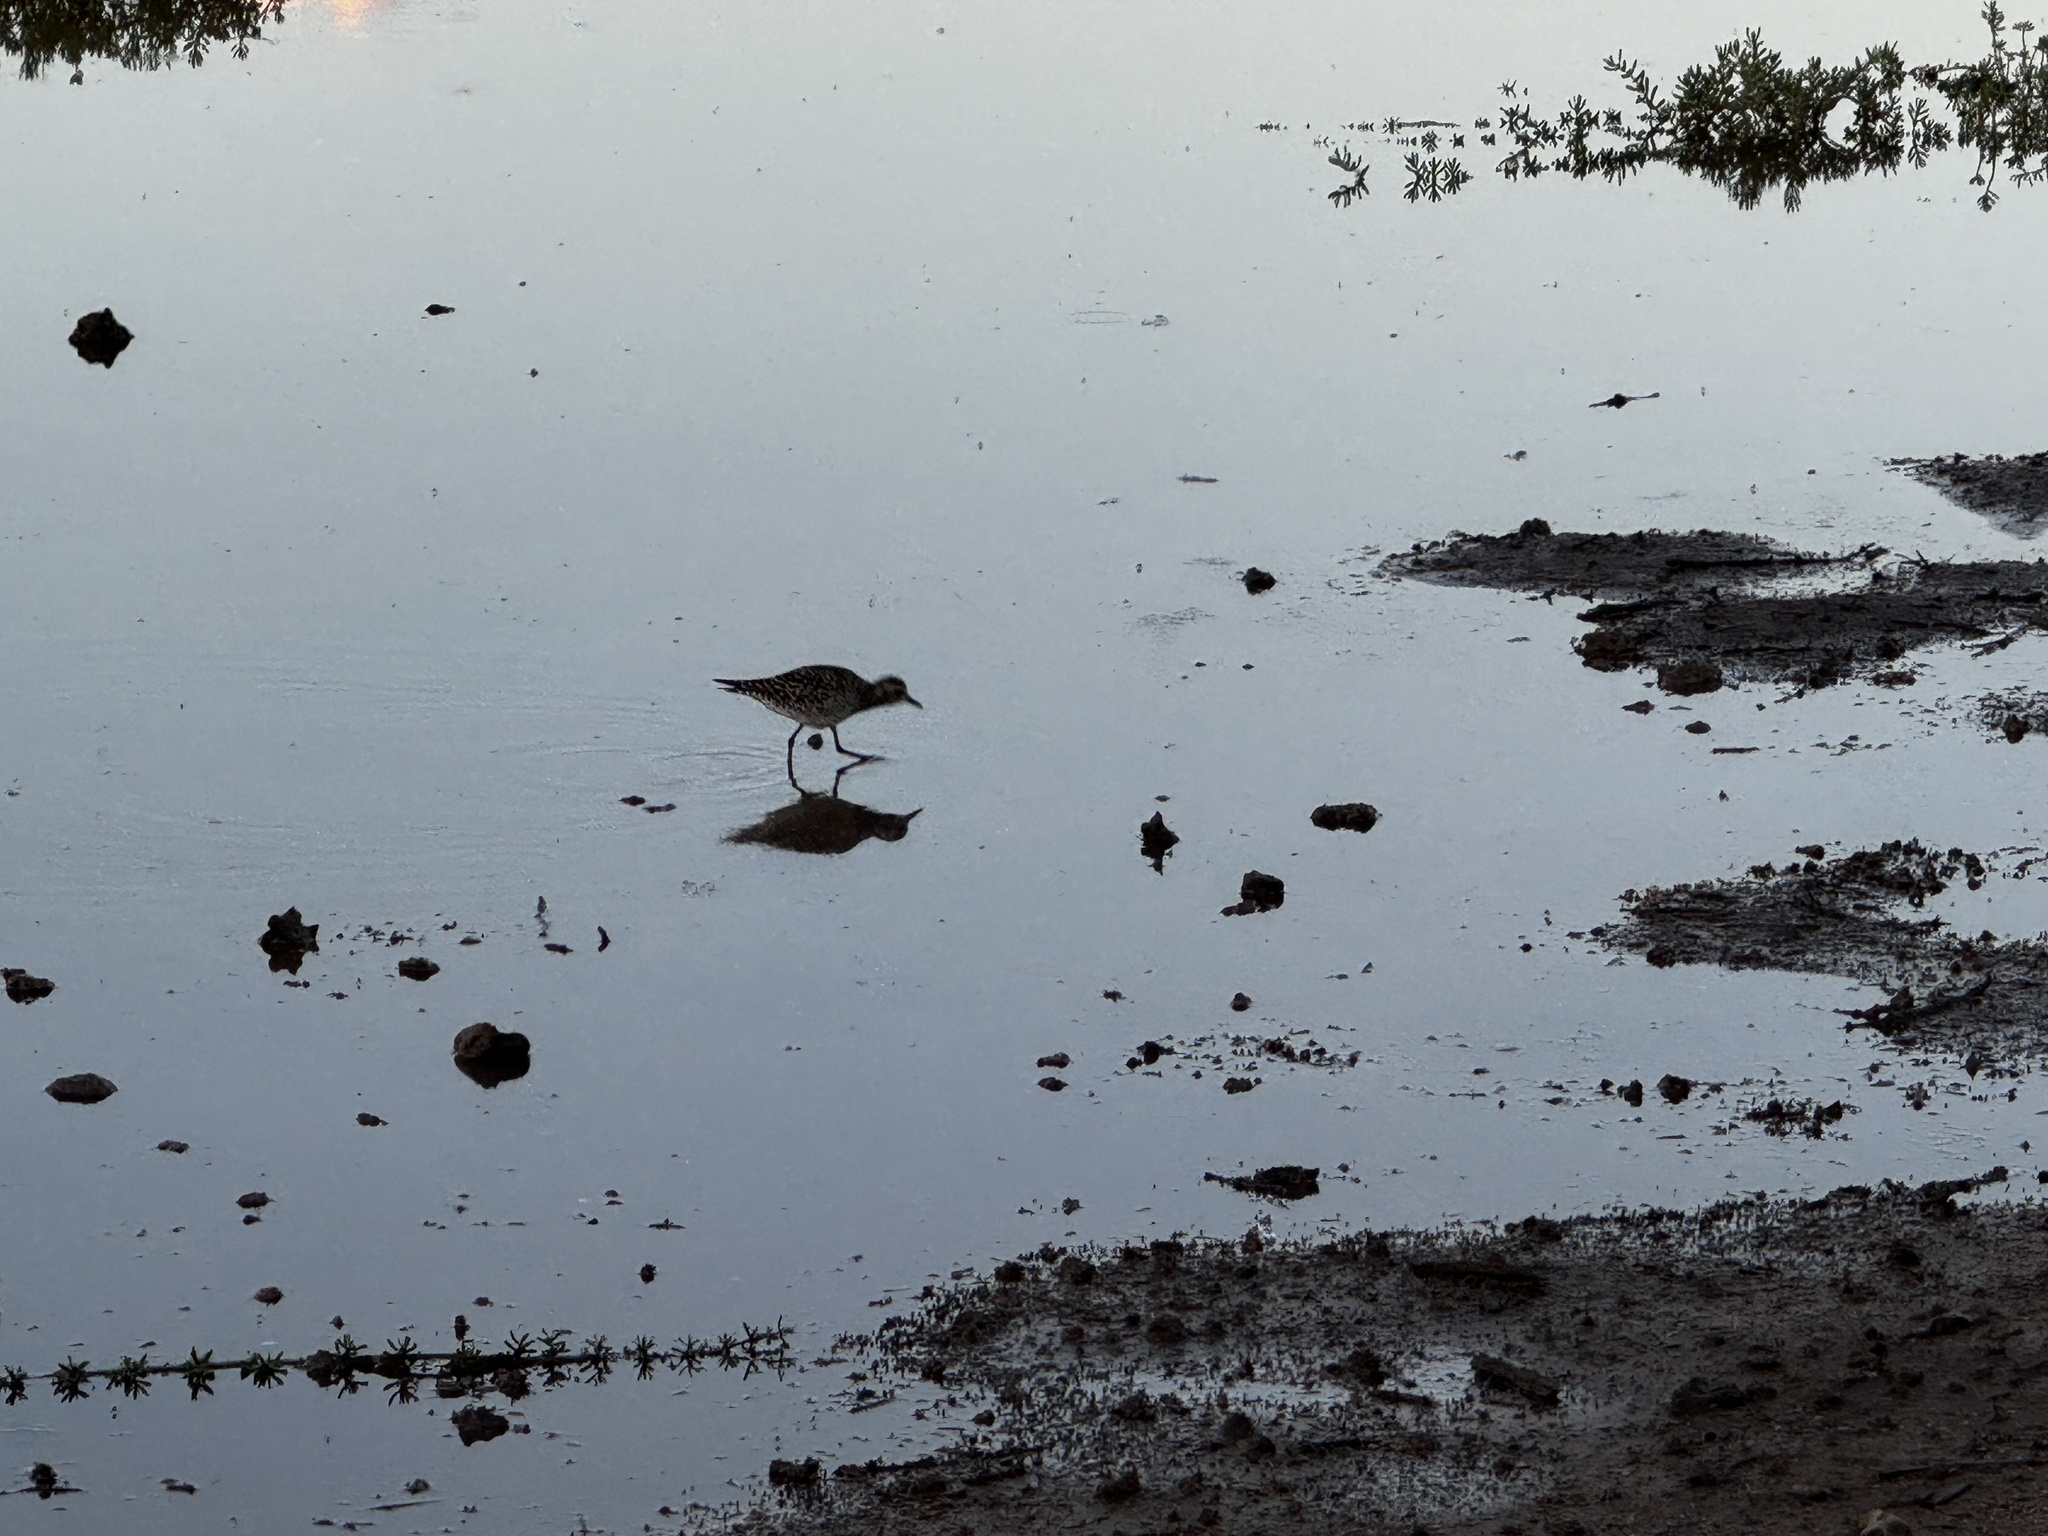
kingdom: Animalia
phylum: Chordata
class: Aves
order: Charadriiformes
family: Charadriidae
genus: Pluvialis
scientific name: Pluvialis fulva
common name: Pacific golden plover
